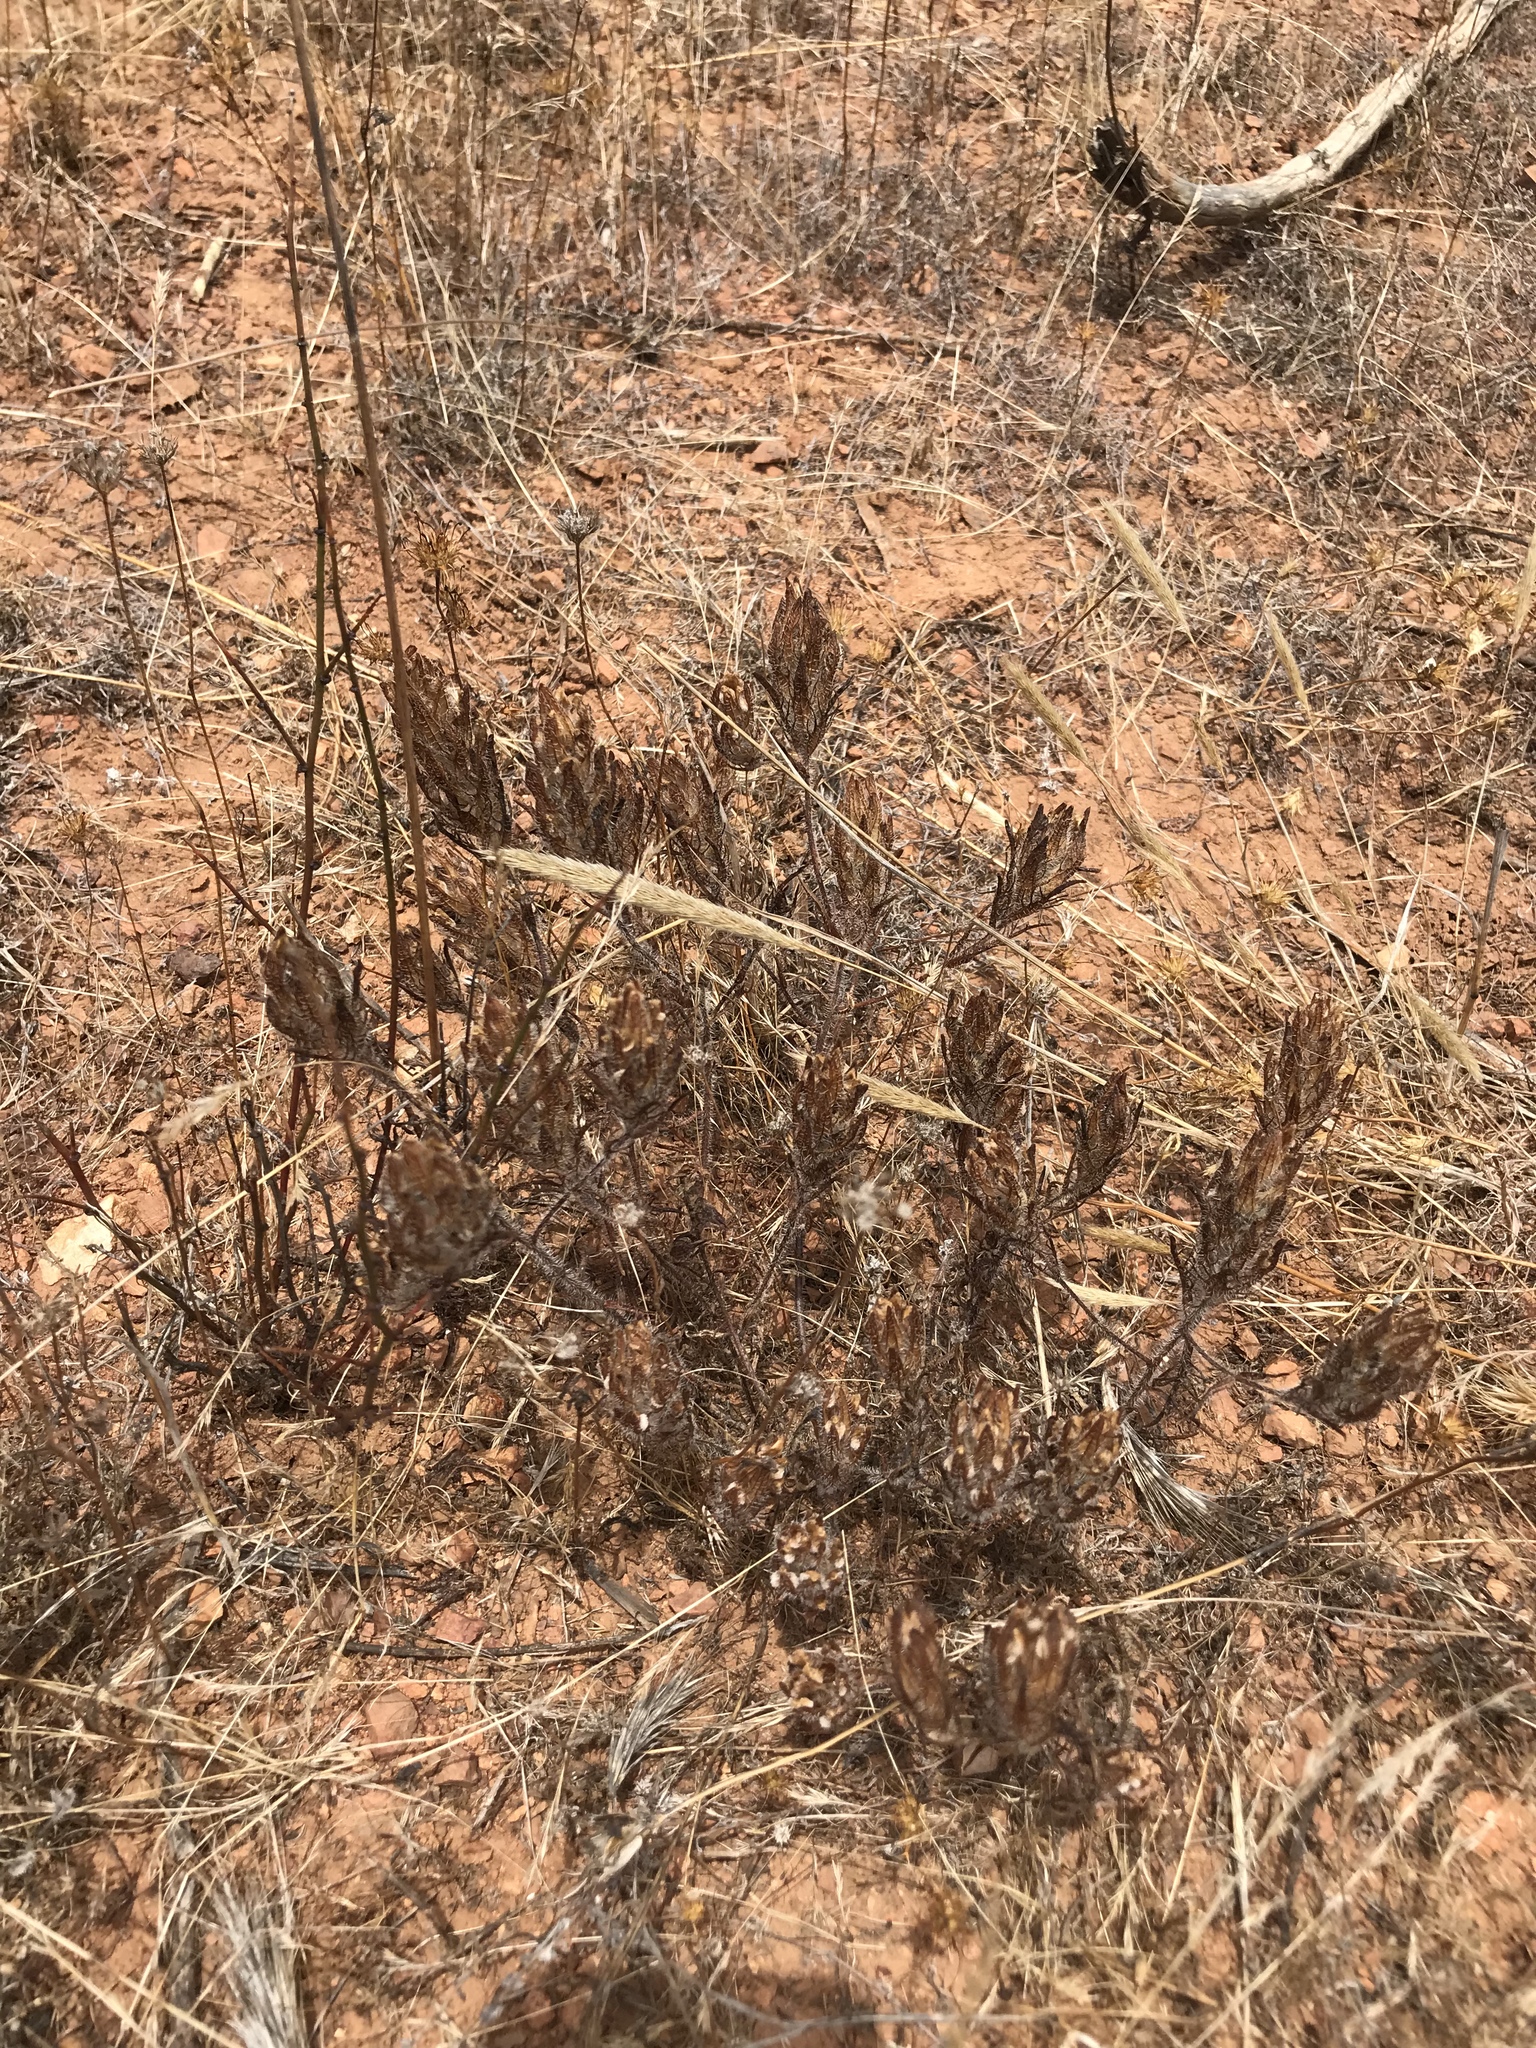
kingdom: Plantae
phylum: Tracheophyta
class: Magnoliopsida
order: Lamiales
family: Orobanchaceae
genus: Dicranostegia
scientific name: Dicranostegia orcuttiana
